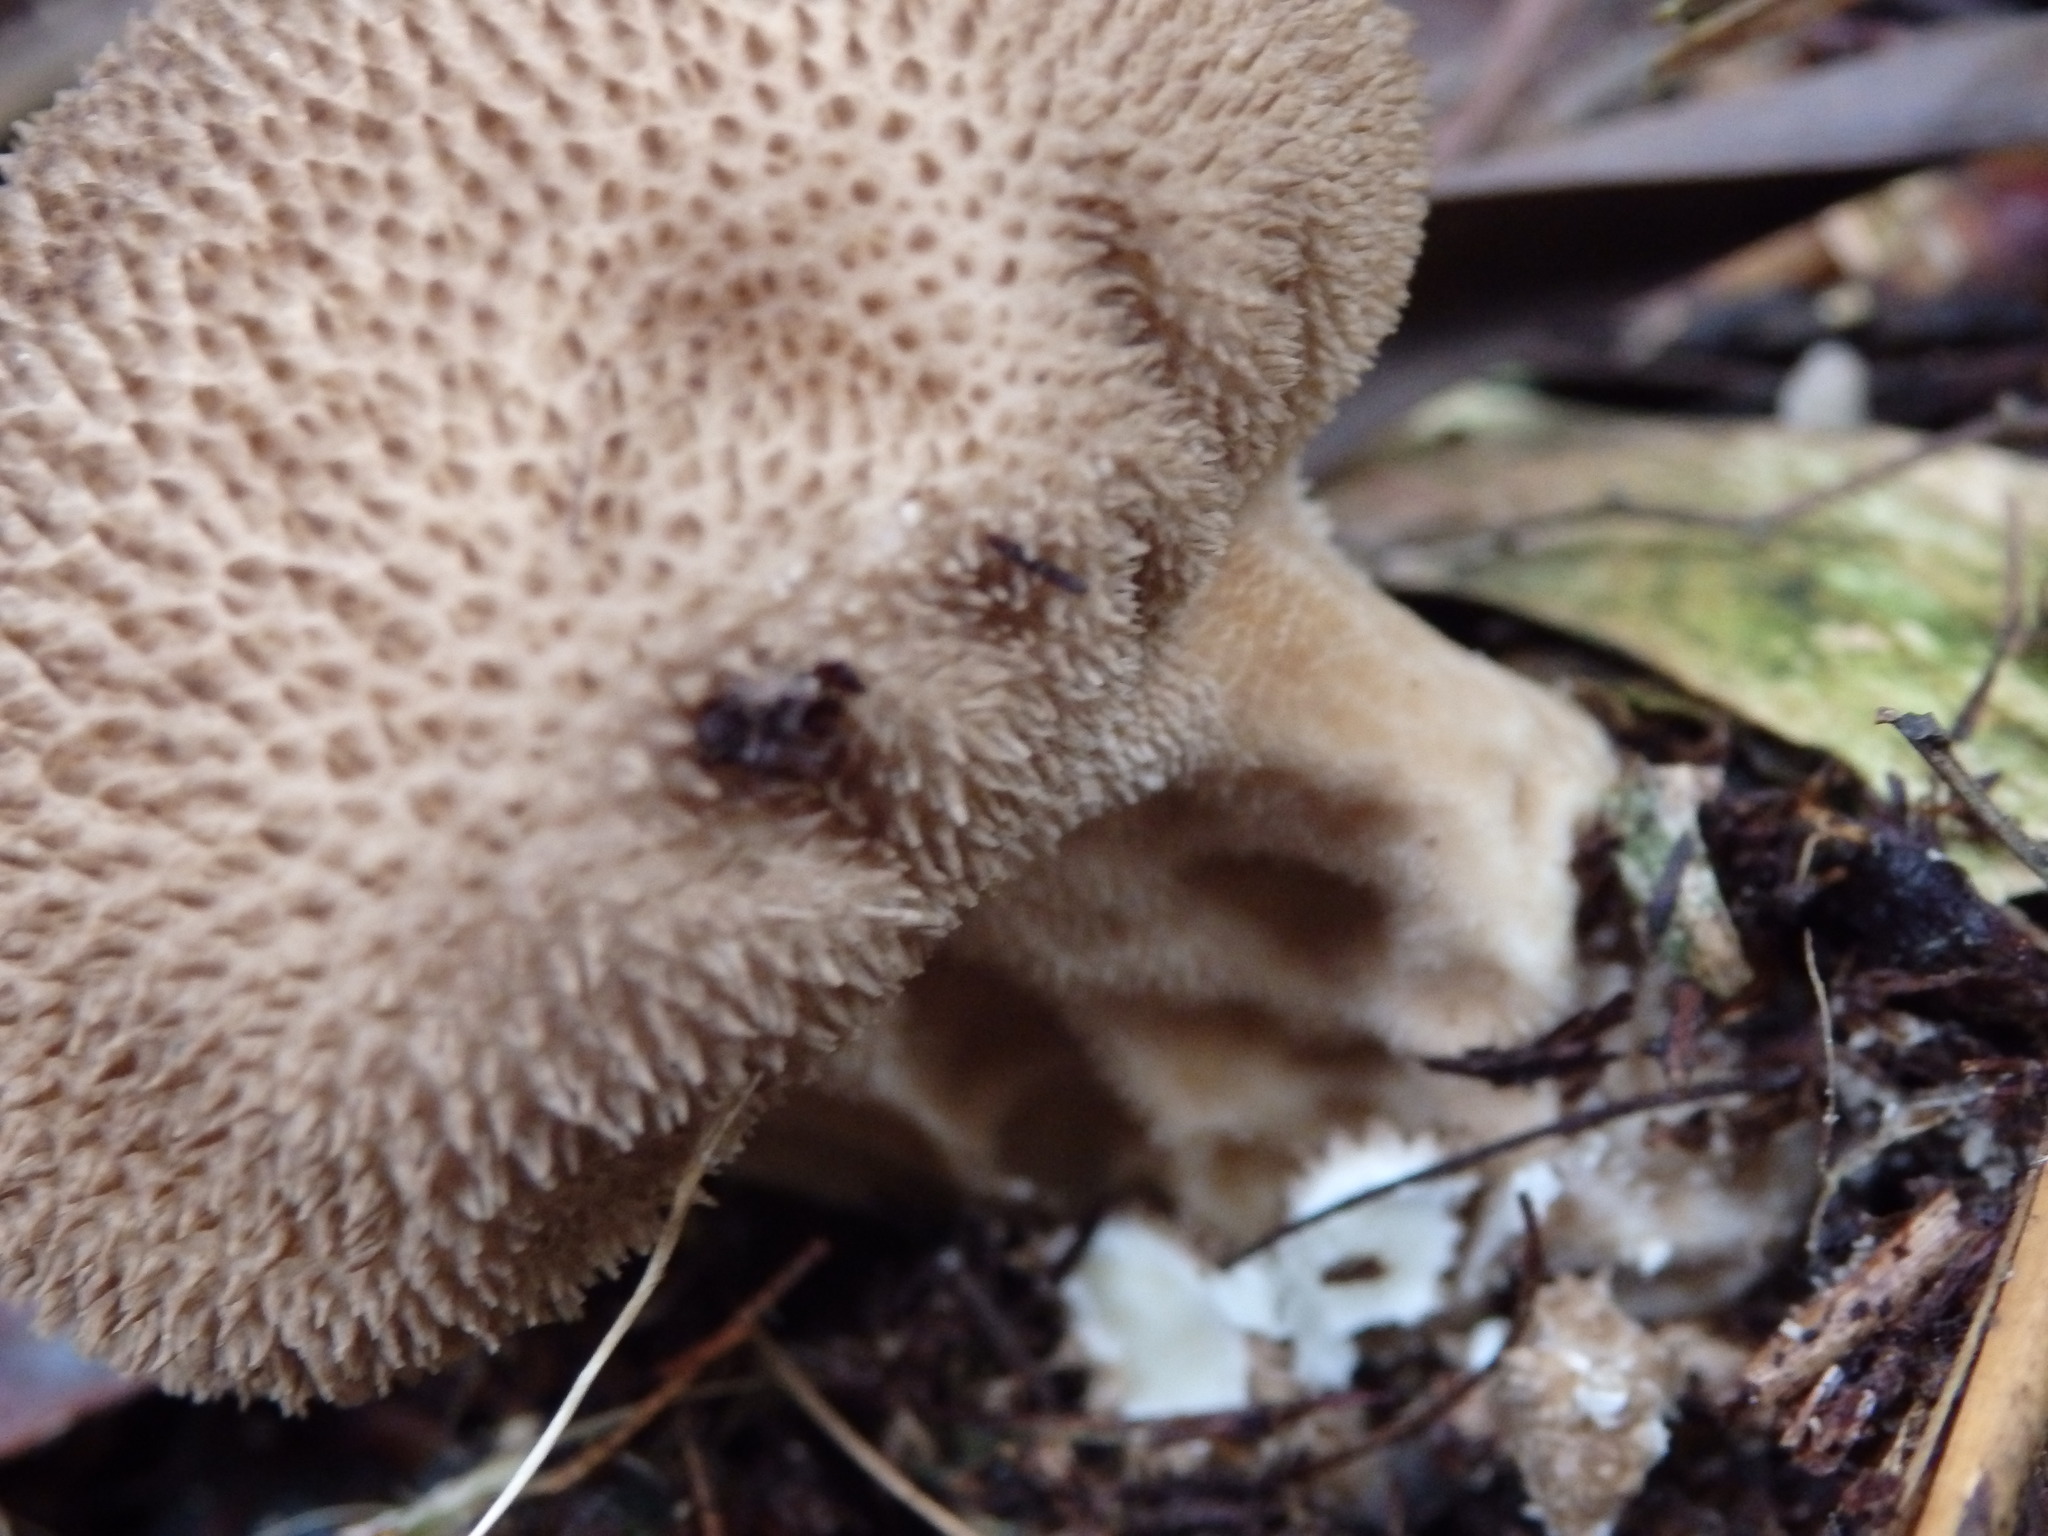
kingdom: Fungi
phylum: Basidiomycota
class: Agaricomycetes
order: Agaricales
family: Lycoperdaceae
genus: Lycoperdon
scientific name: Lycoperdon perlatum
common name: Common puffball
